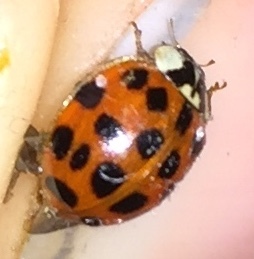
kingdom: Animalia
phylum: Arthropoda
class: Insecta
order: Coleoptera
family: Coccinellidae
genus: Harmonia
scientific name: Harmonia axyridis
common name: Harlequin ladybird
